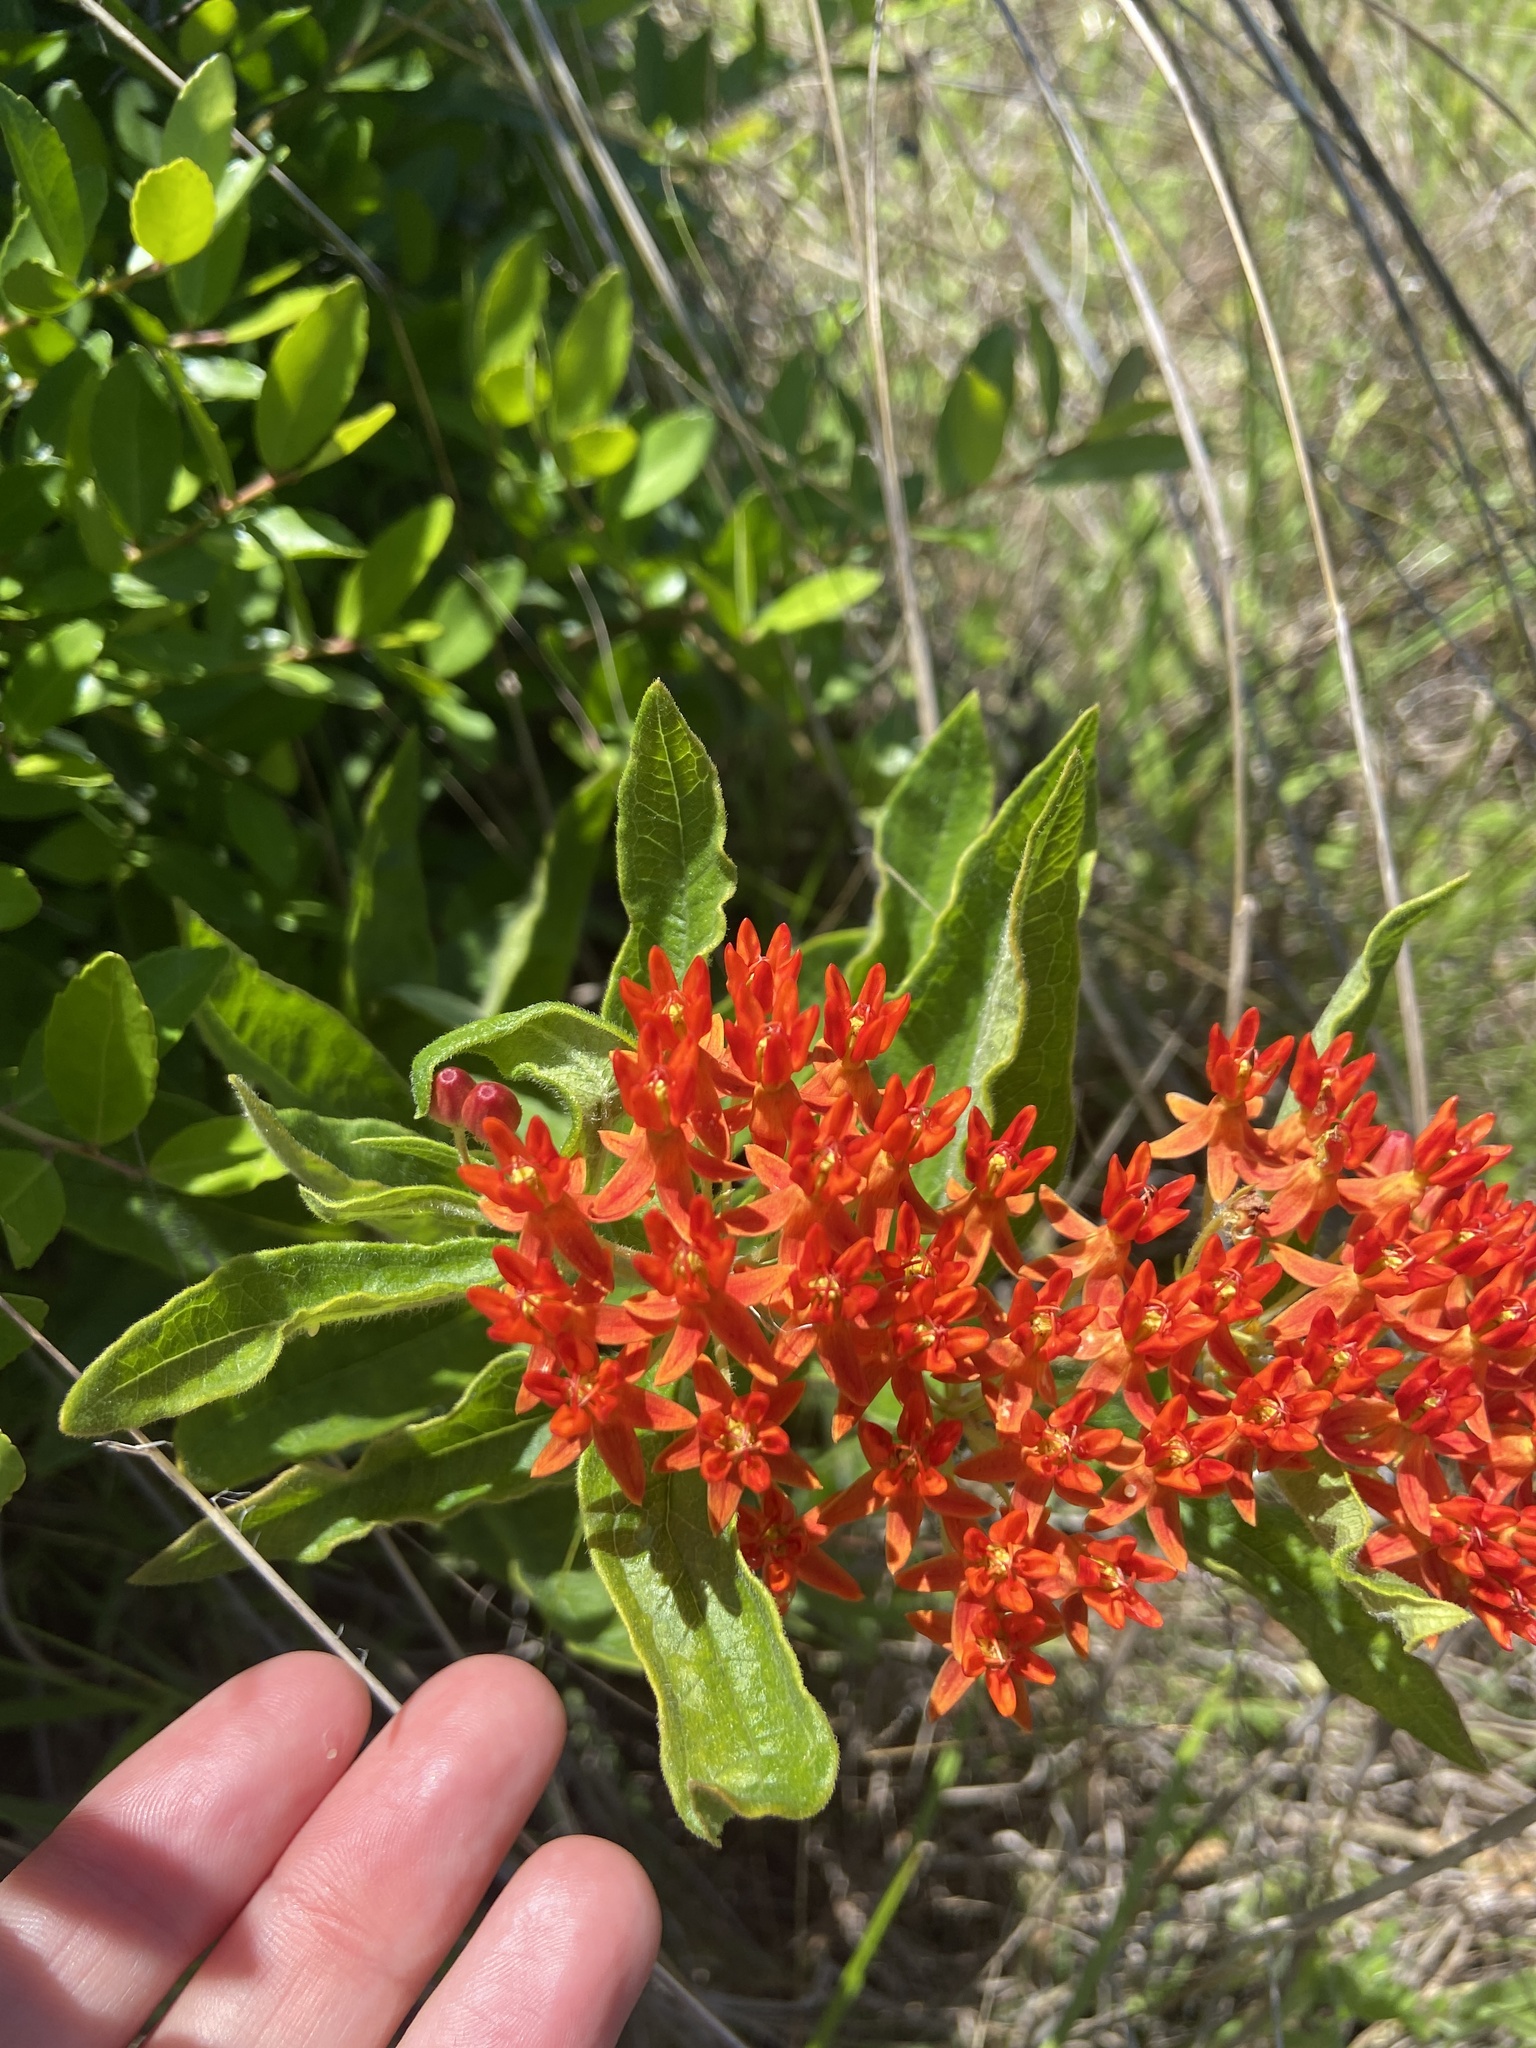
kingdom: Plantae
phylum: Tracheophyta
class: Magnoliopsida
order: Gentianales
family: Apocynaceae
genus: Asclepias
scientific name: Asclepias tuberosa
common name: Butterfly milkweed
